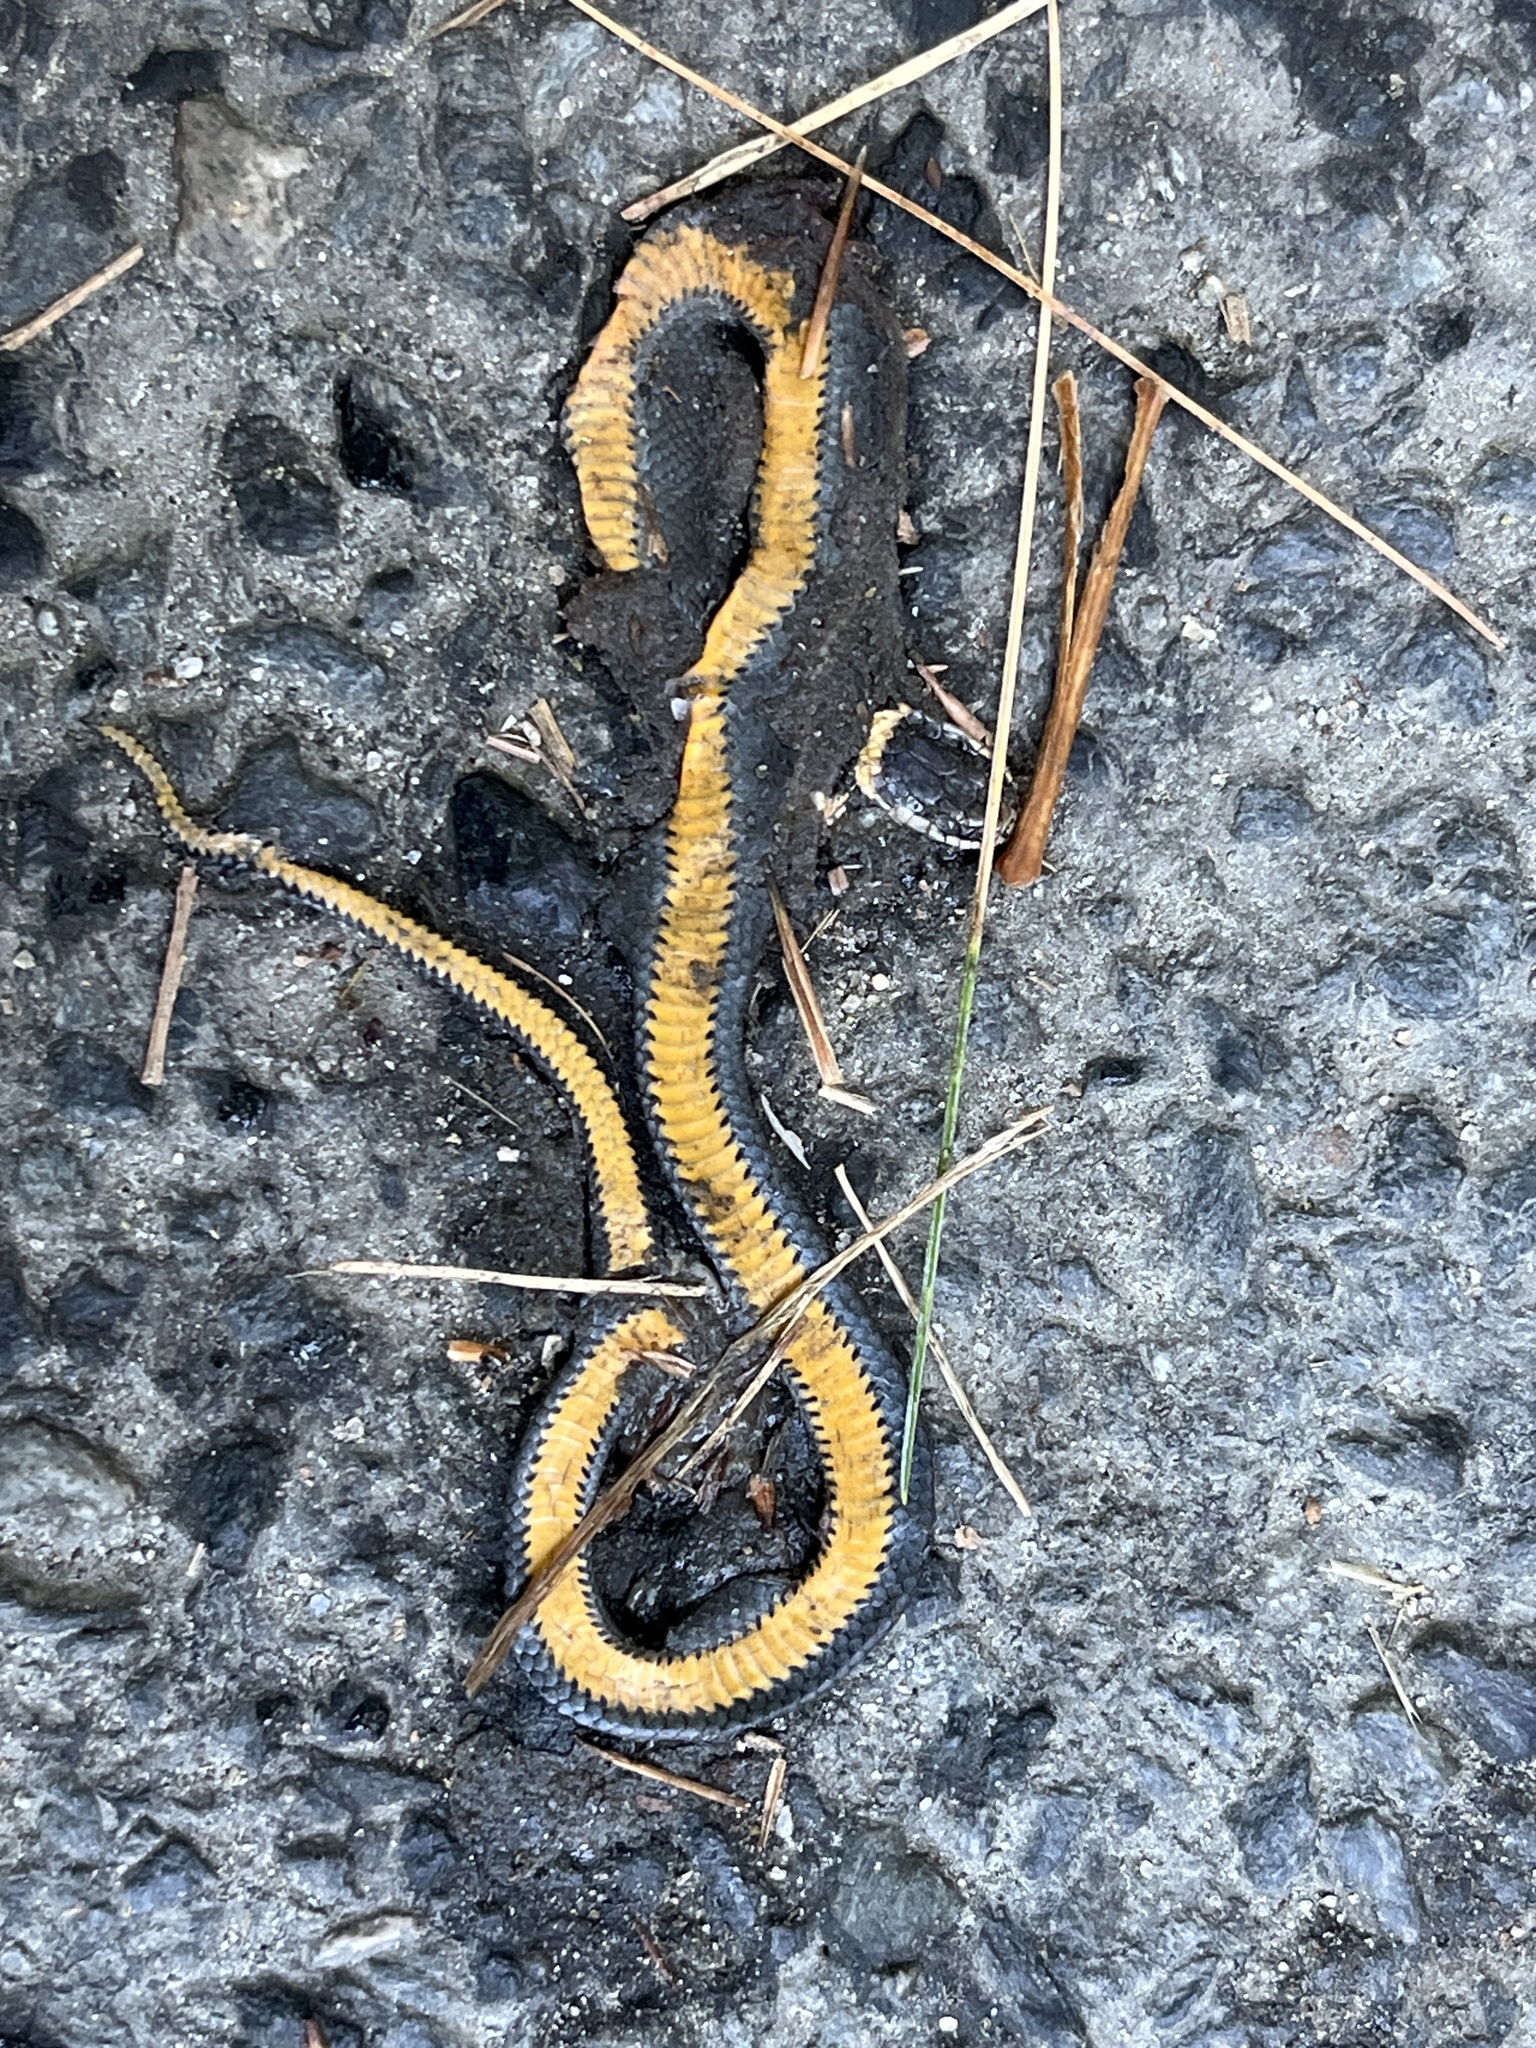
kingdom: Animalia
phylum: Chordata
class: Squamata
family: Colubridae
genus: Diadophis
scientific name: Diadophis punctatus
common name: Ringneck snake
